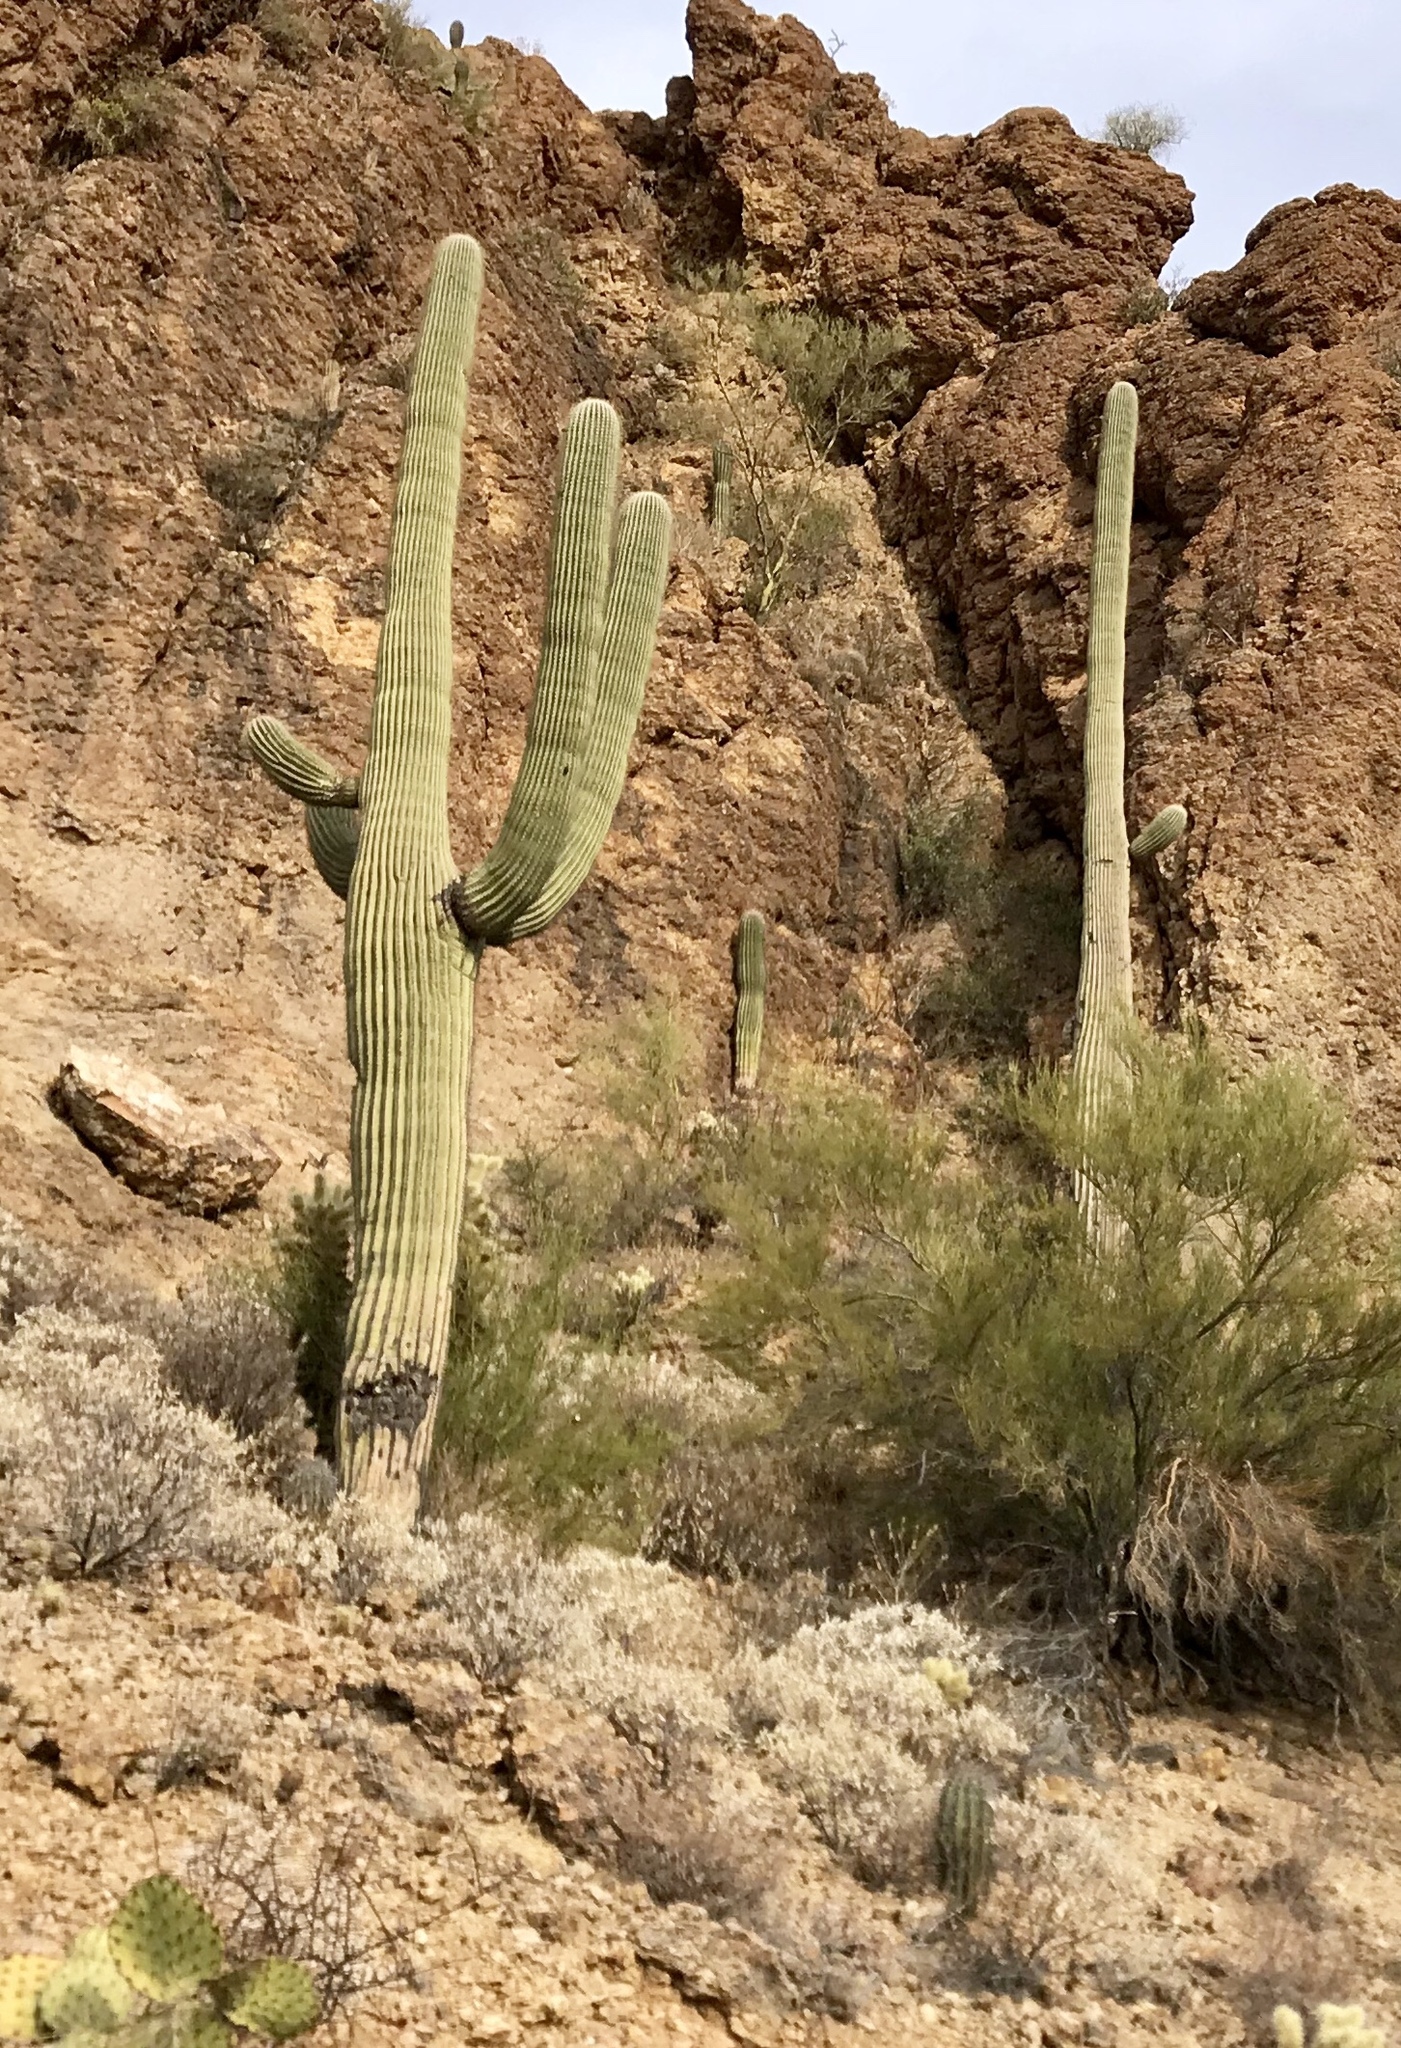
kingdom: Plantae
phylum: Tracheophyta
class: Magnoliopsida
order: Caryophyllales
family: Cactaceae
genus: Carnegiea
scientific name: Carnegiea gigantea
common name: Saguaro
